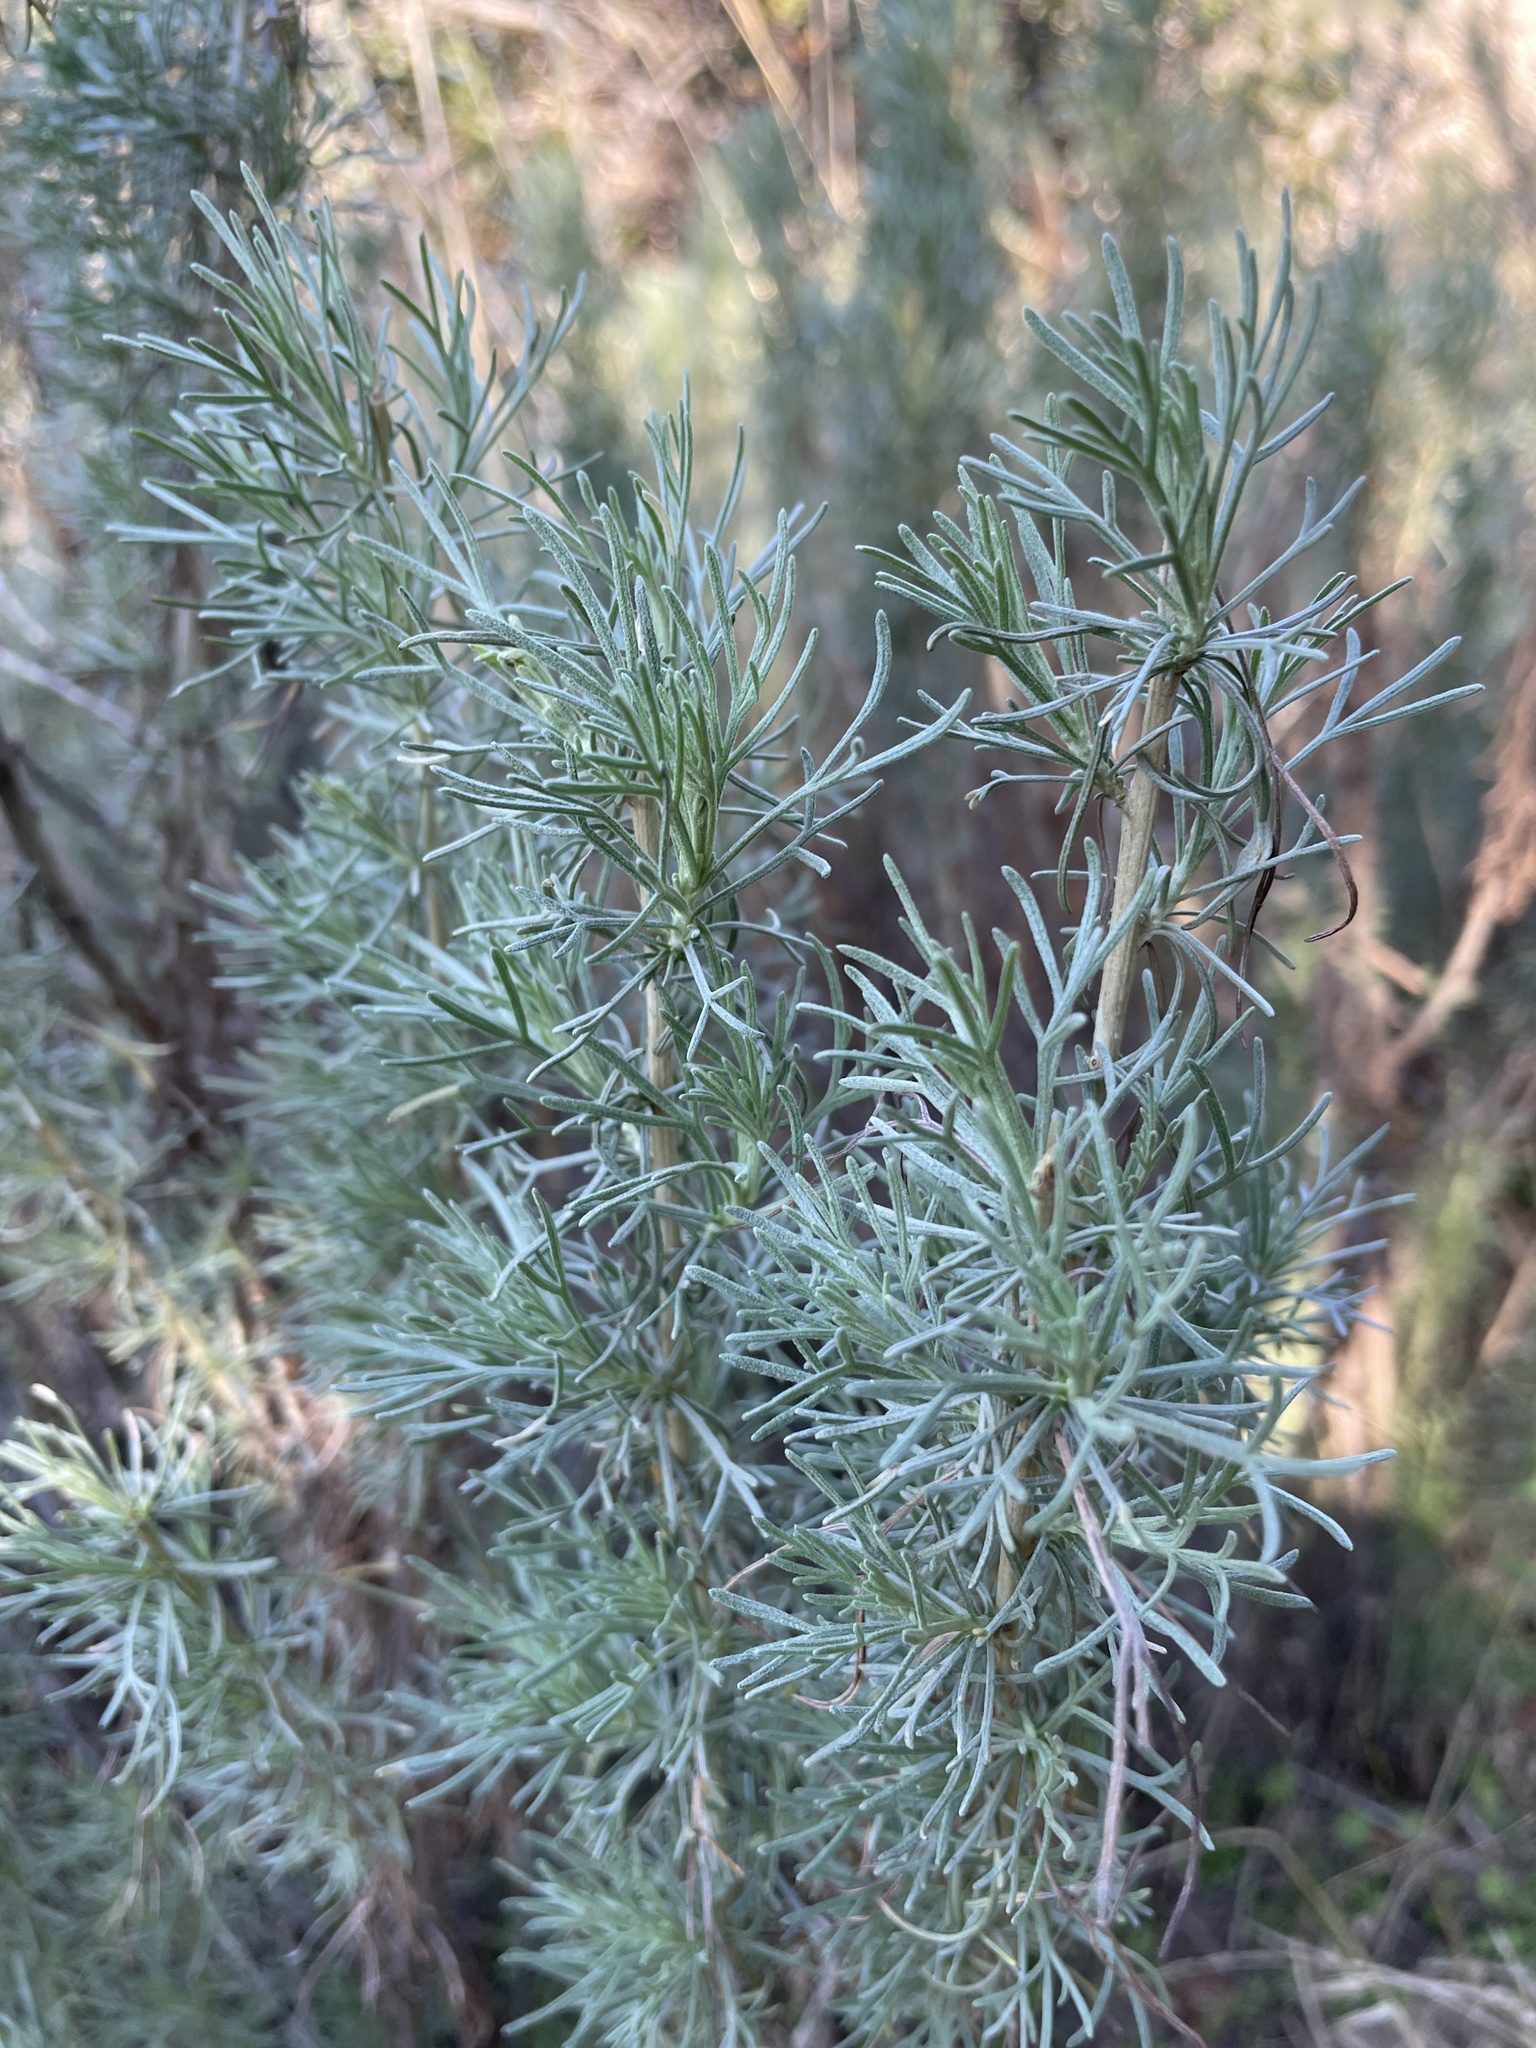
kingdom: Plantae
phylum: Tracheophyta
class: Magnoliopsida
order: Asterales
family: Asteraceae
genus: Artemisia
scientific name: Artemisia californica
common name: California sagebrush
